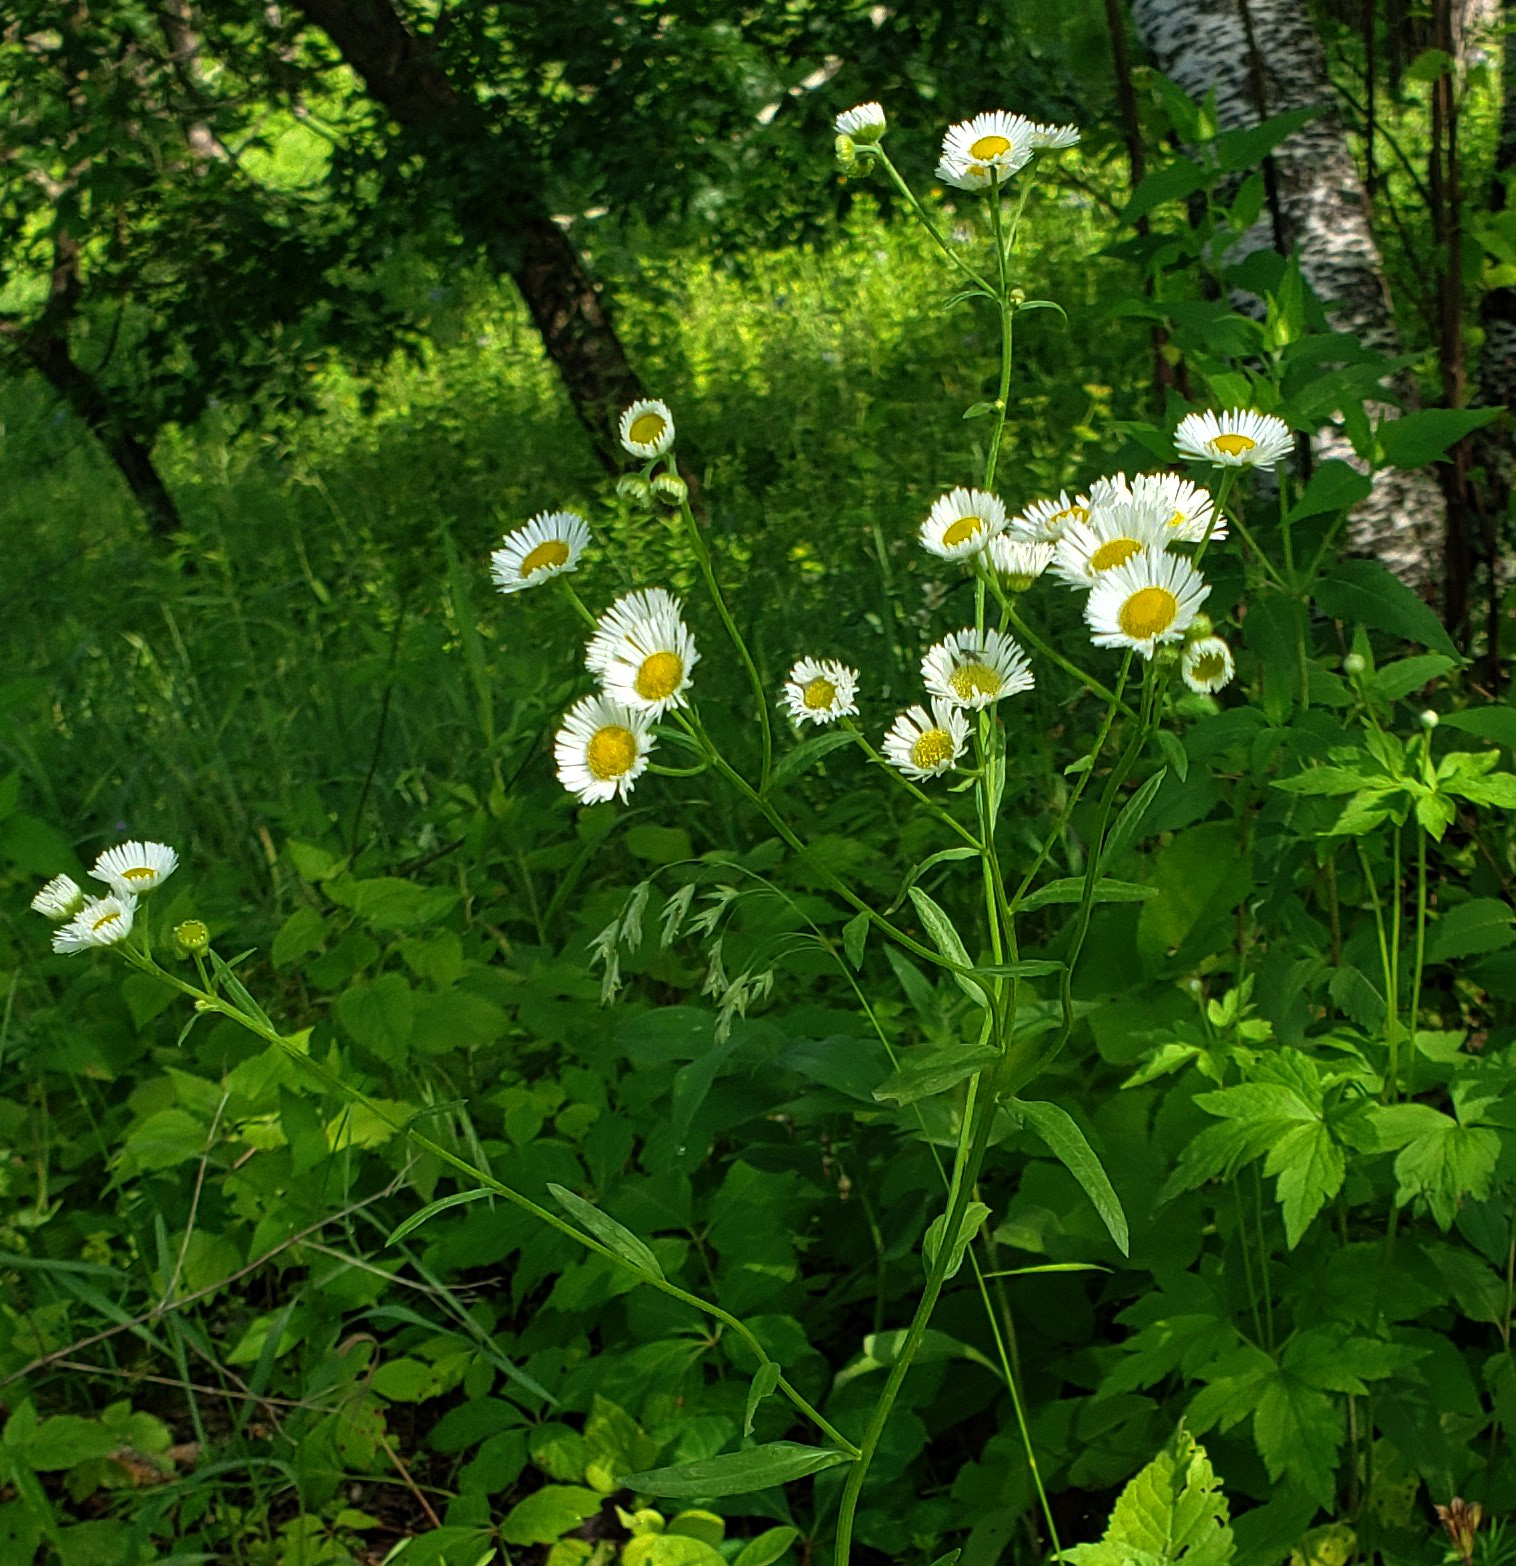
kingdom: Plantae
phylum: Tracheophyta
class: Magnoliopsida
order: Asterales
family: Asteraceae
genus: Erigeron
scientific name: Erigeron strigosus
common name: Common eastern fleabane
